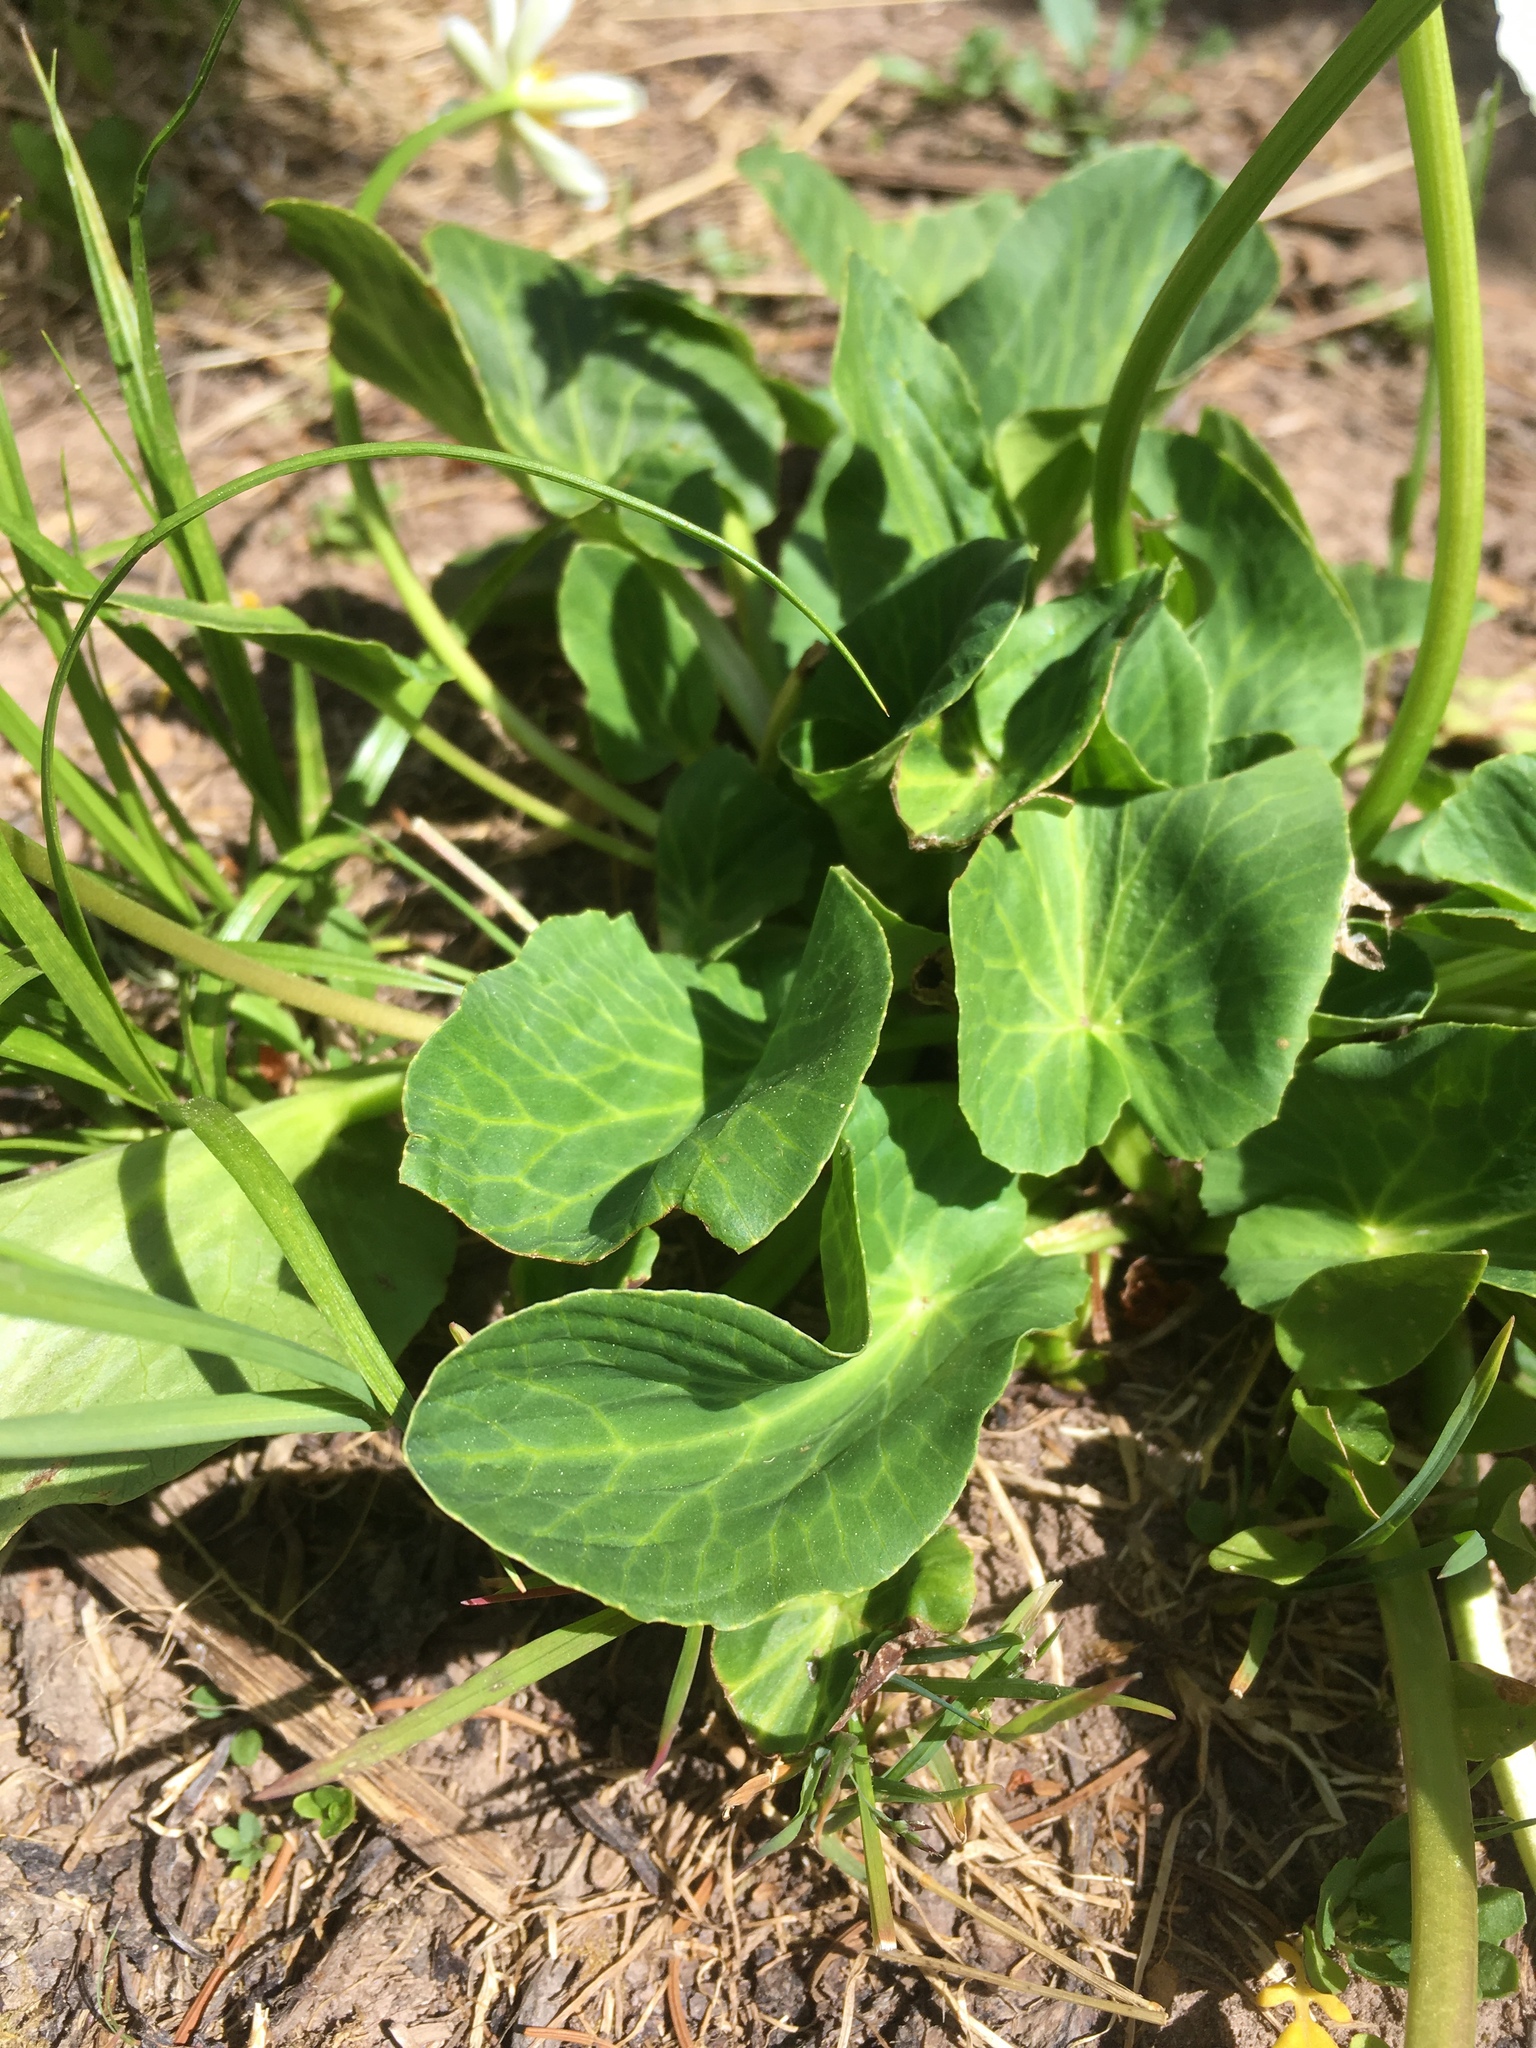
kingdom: Plantae
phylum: Tracheophyta
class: Magnoliopsida
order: Ranunculales
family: Ranunculaceae
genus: Caltha
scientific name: Caltha leptosepala
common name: Elkslip
